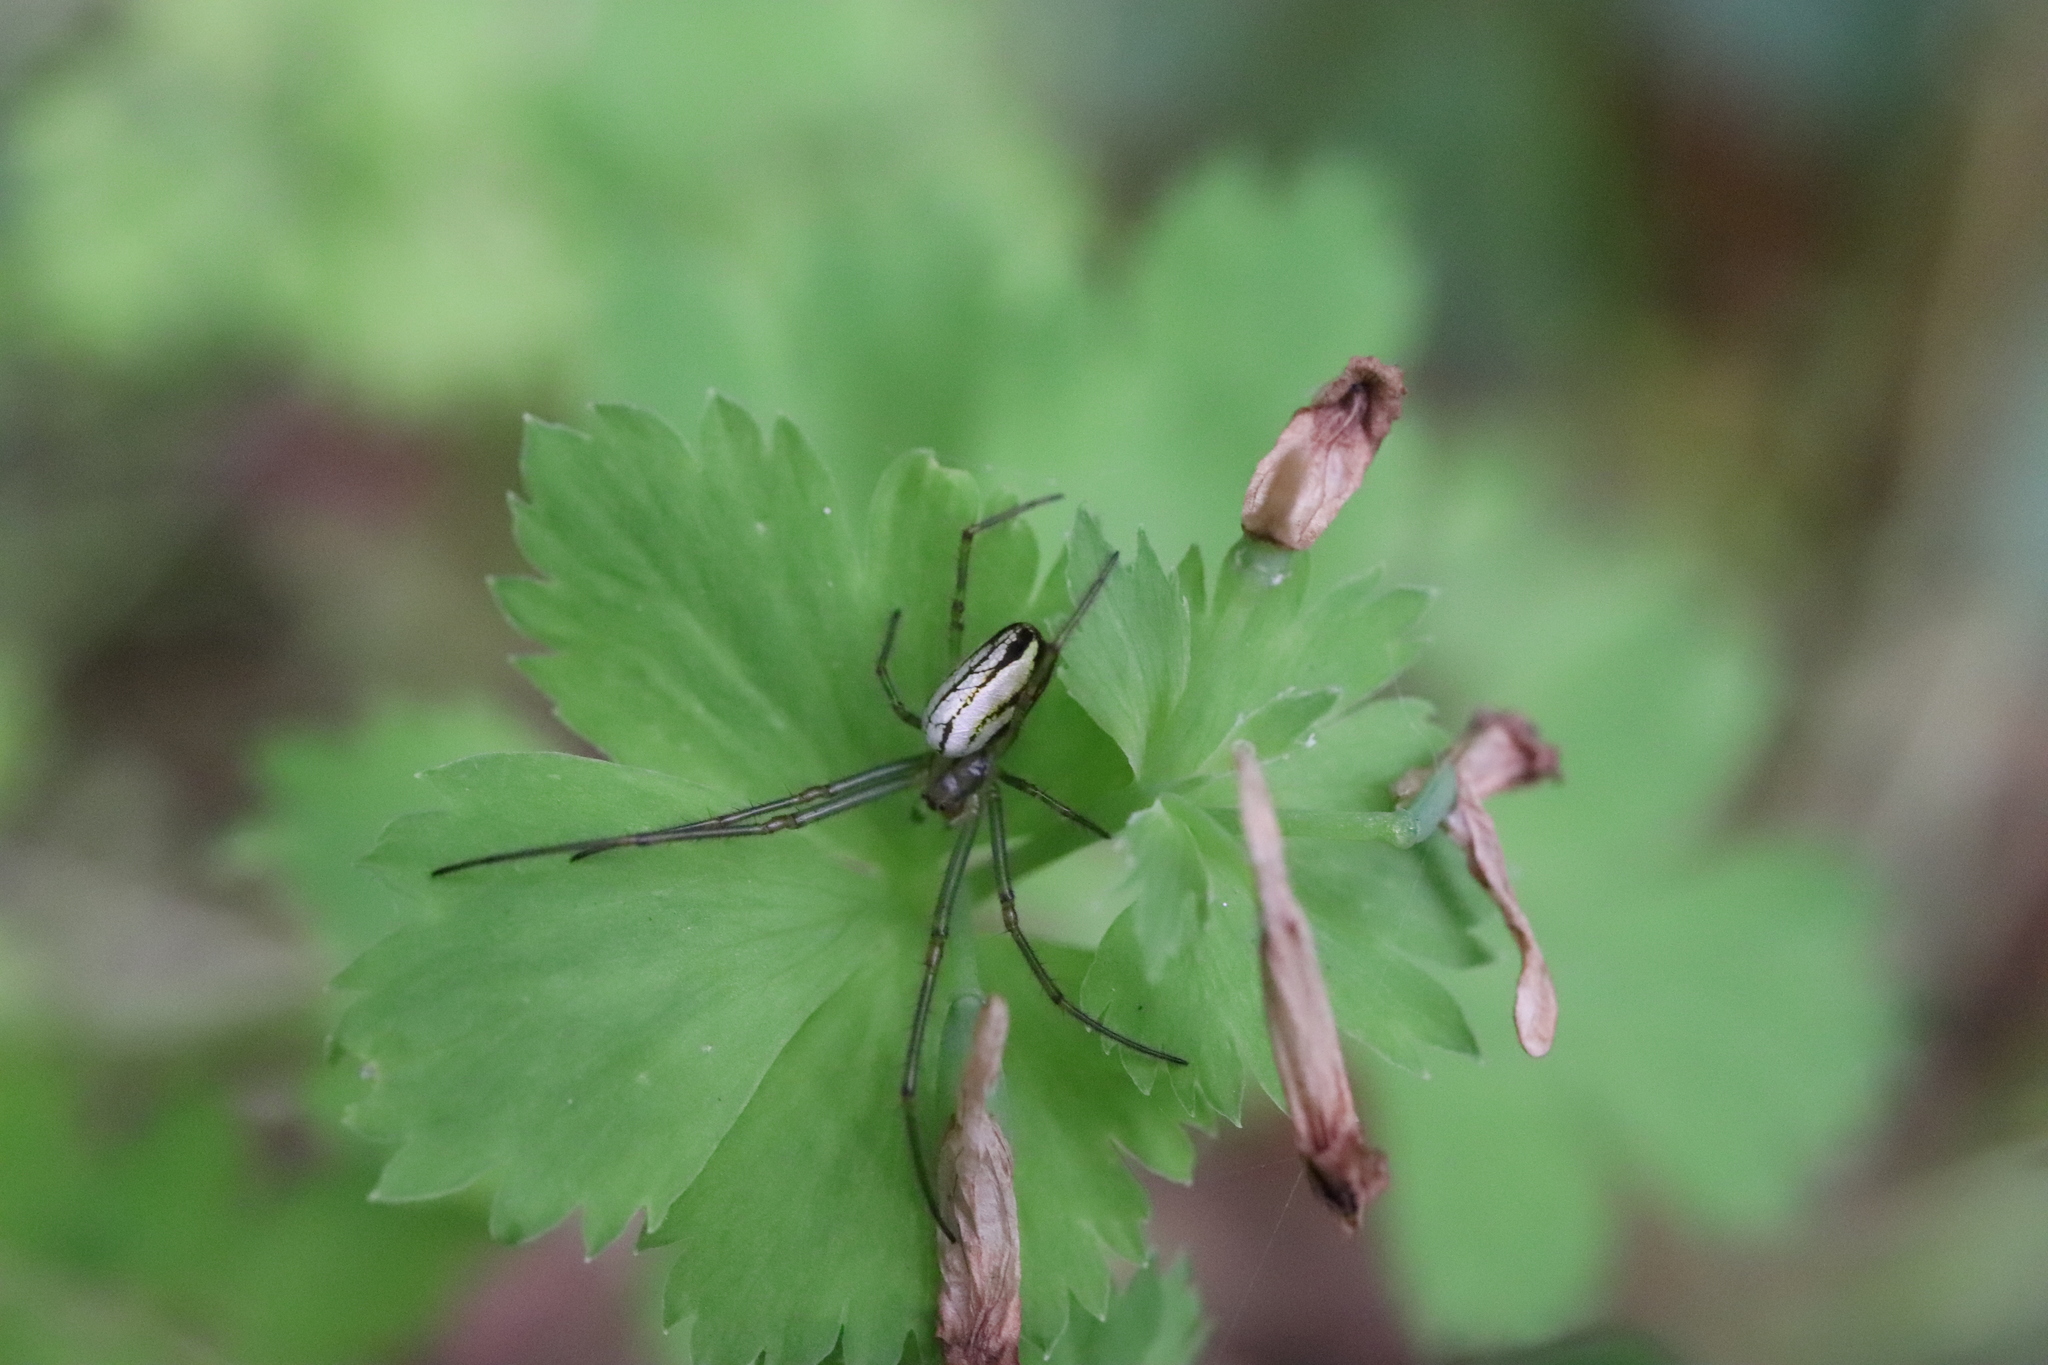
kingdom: Animalia
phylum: Arthropoda
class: Arachnida
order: Araneae
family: Tetragnathidae
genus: Leucauge
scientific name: Leucauge celebesiana
